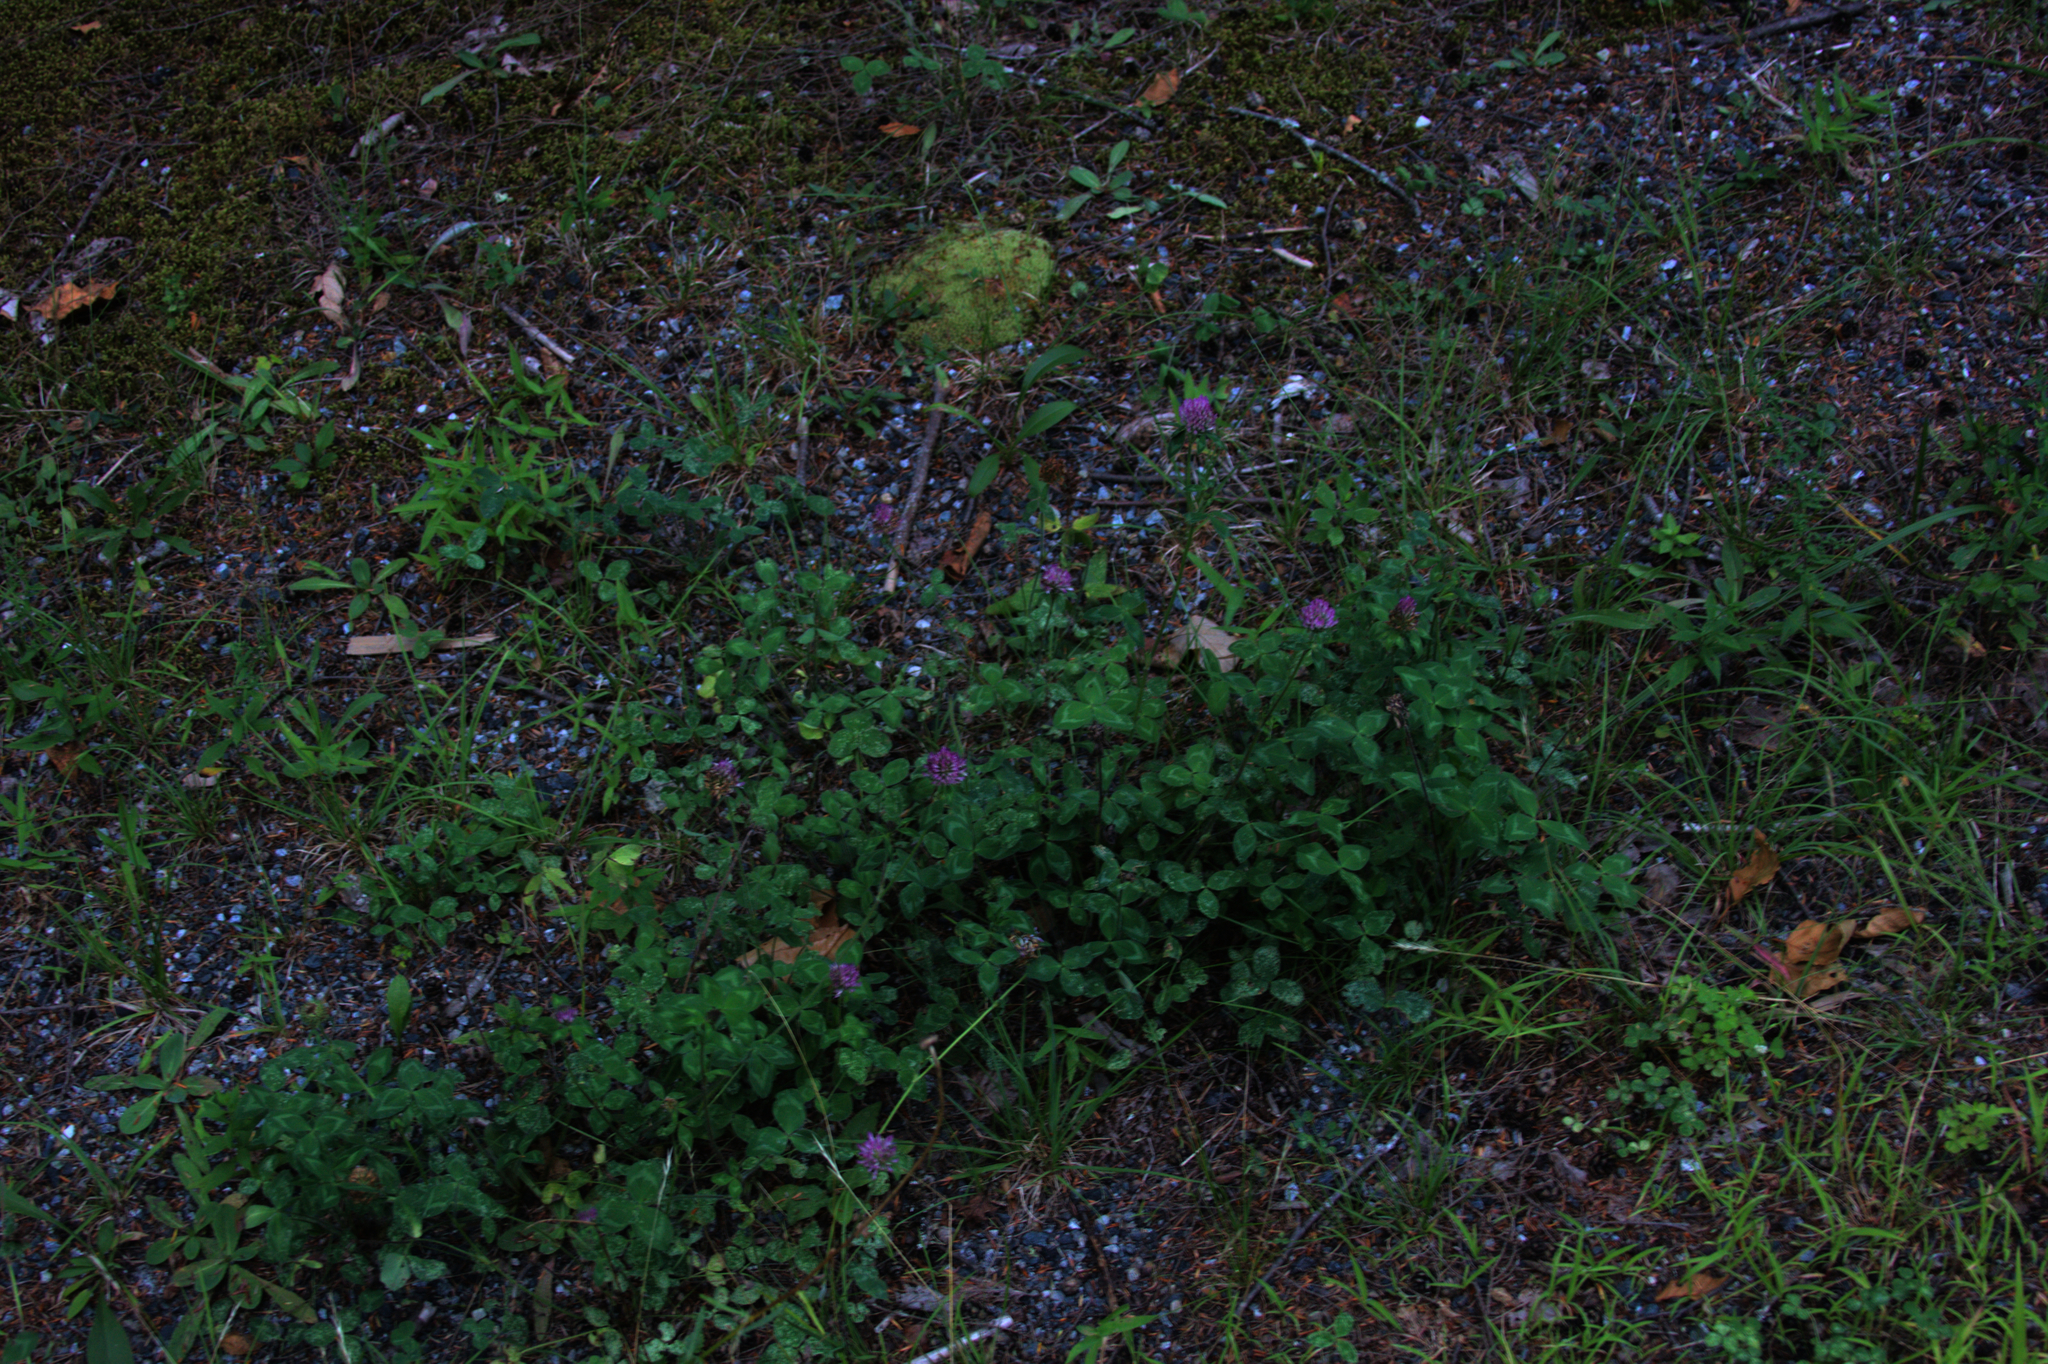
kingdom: Plantae
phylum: Tracheophyta
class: Magnoliopsida
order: Fabales
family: Fabaceae
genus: Trifolium
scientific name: Trifolium pratense
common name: Red clover
